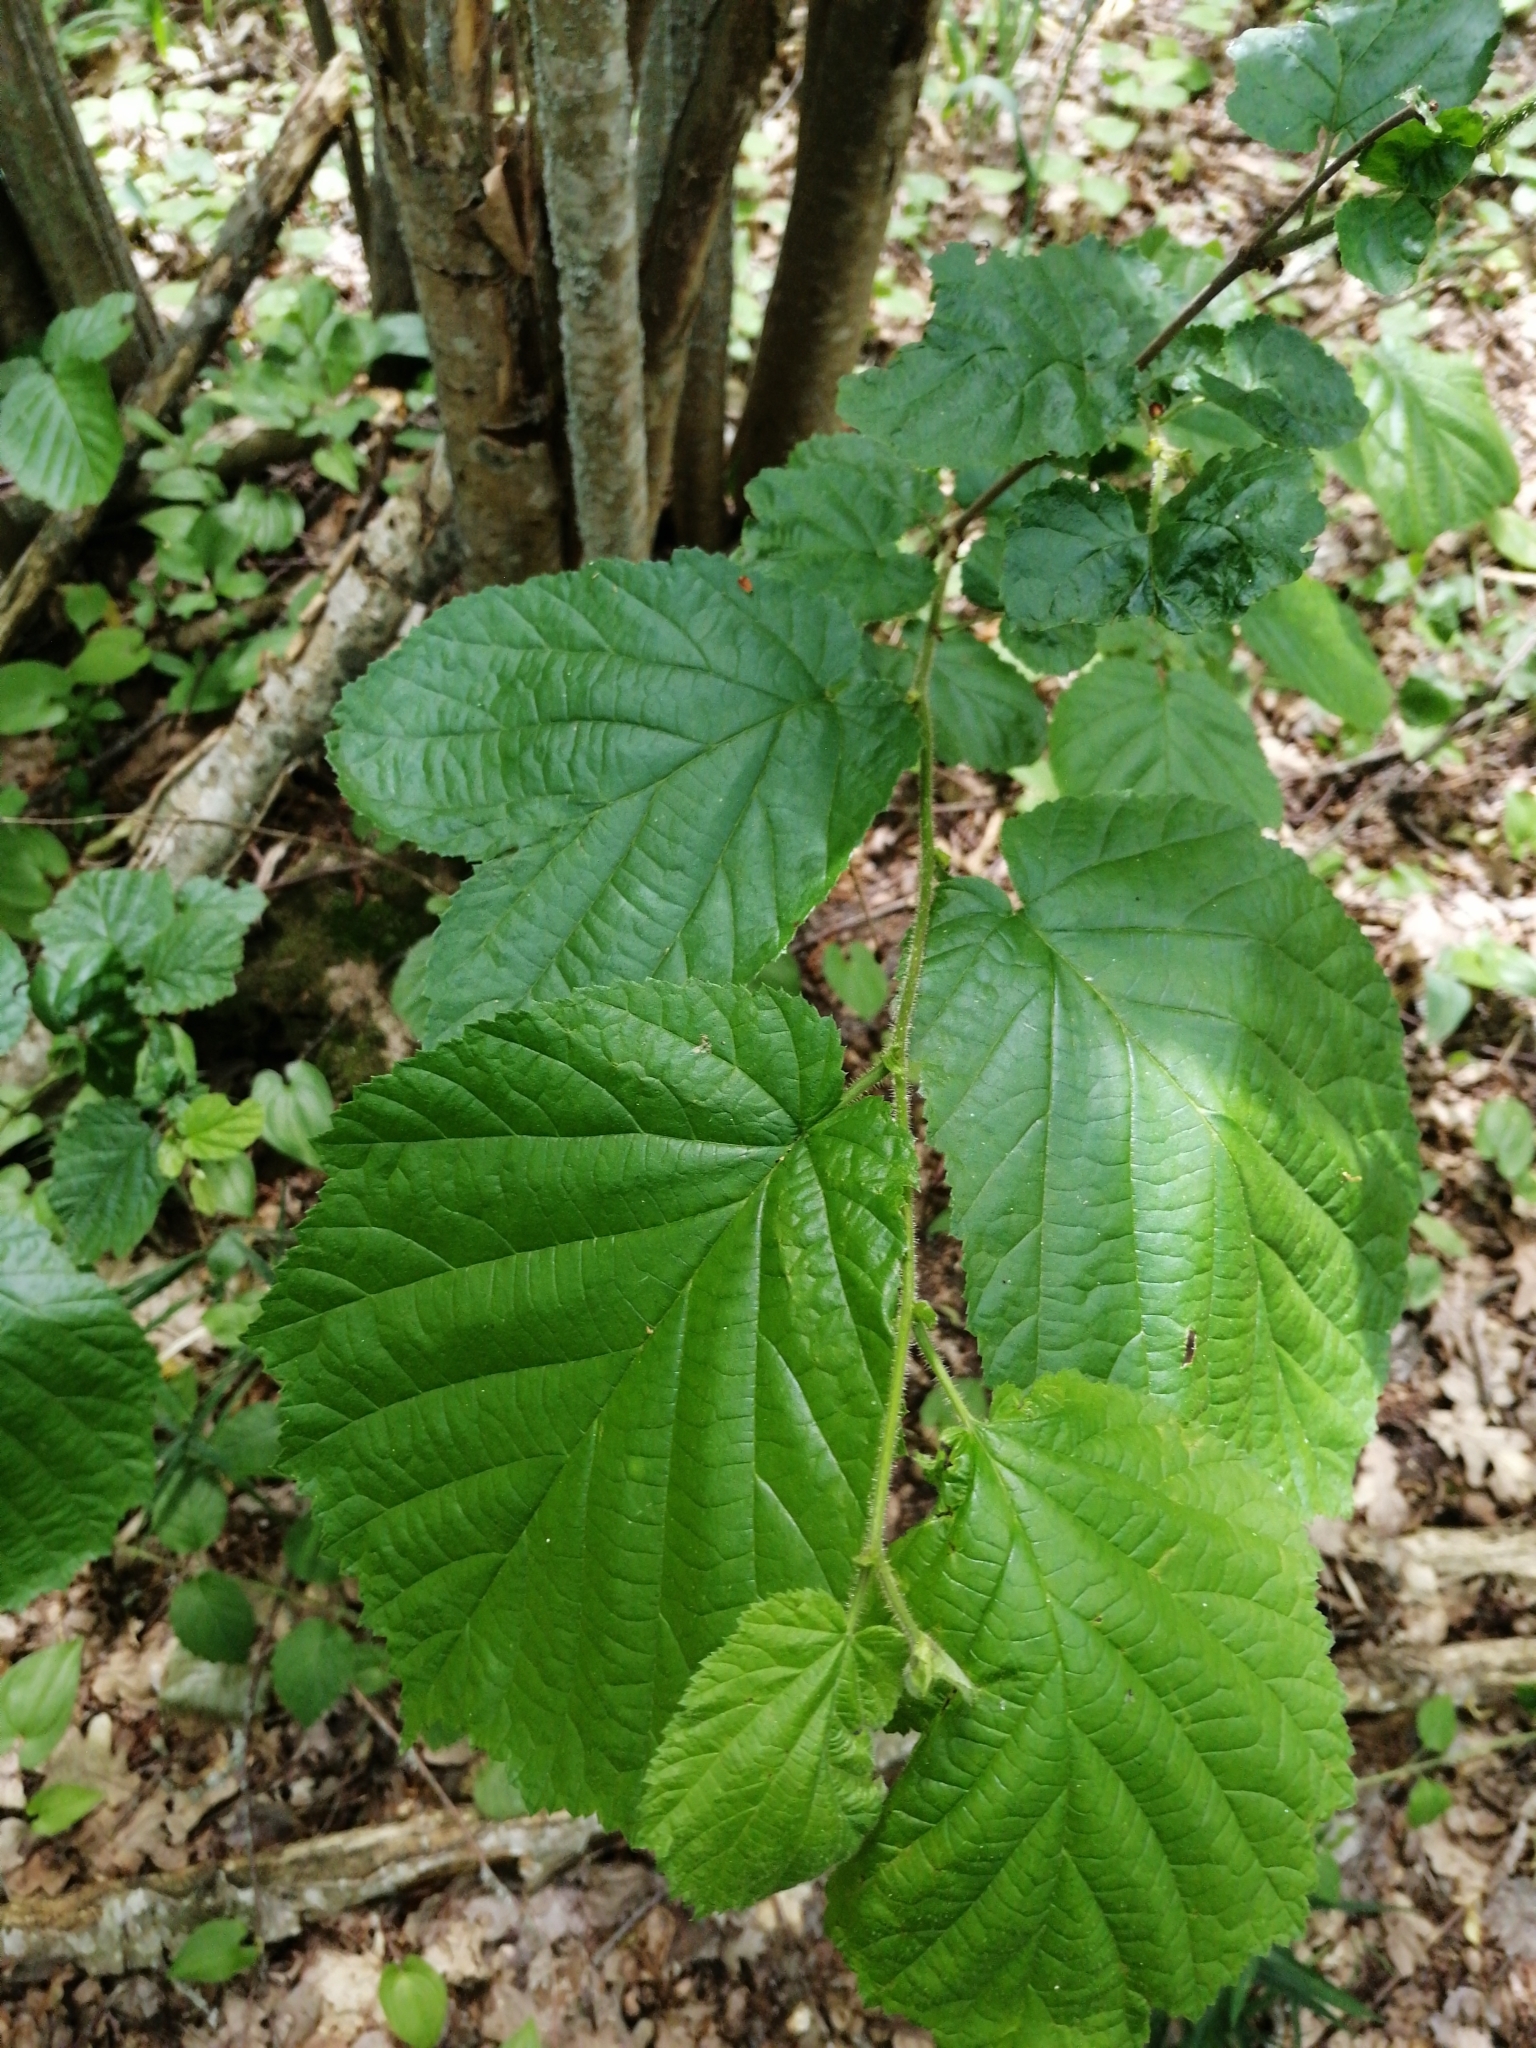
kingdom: Plantae
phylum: Tracheophyta
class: Magnoliopsida
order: Fagales
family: Betulaceae
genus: Corylus
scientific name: Corylus avellana
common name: European hazel
